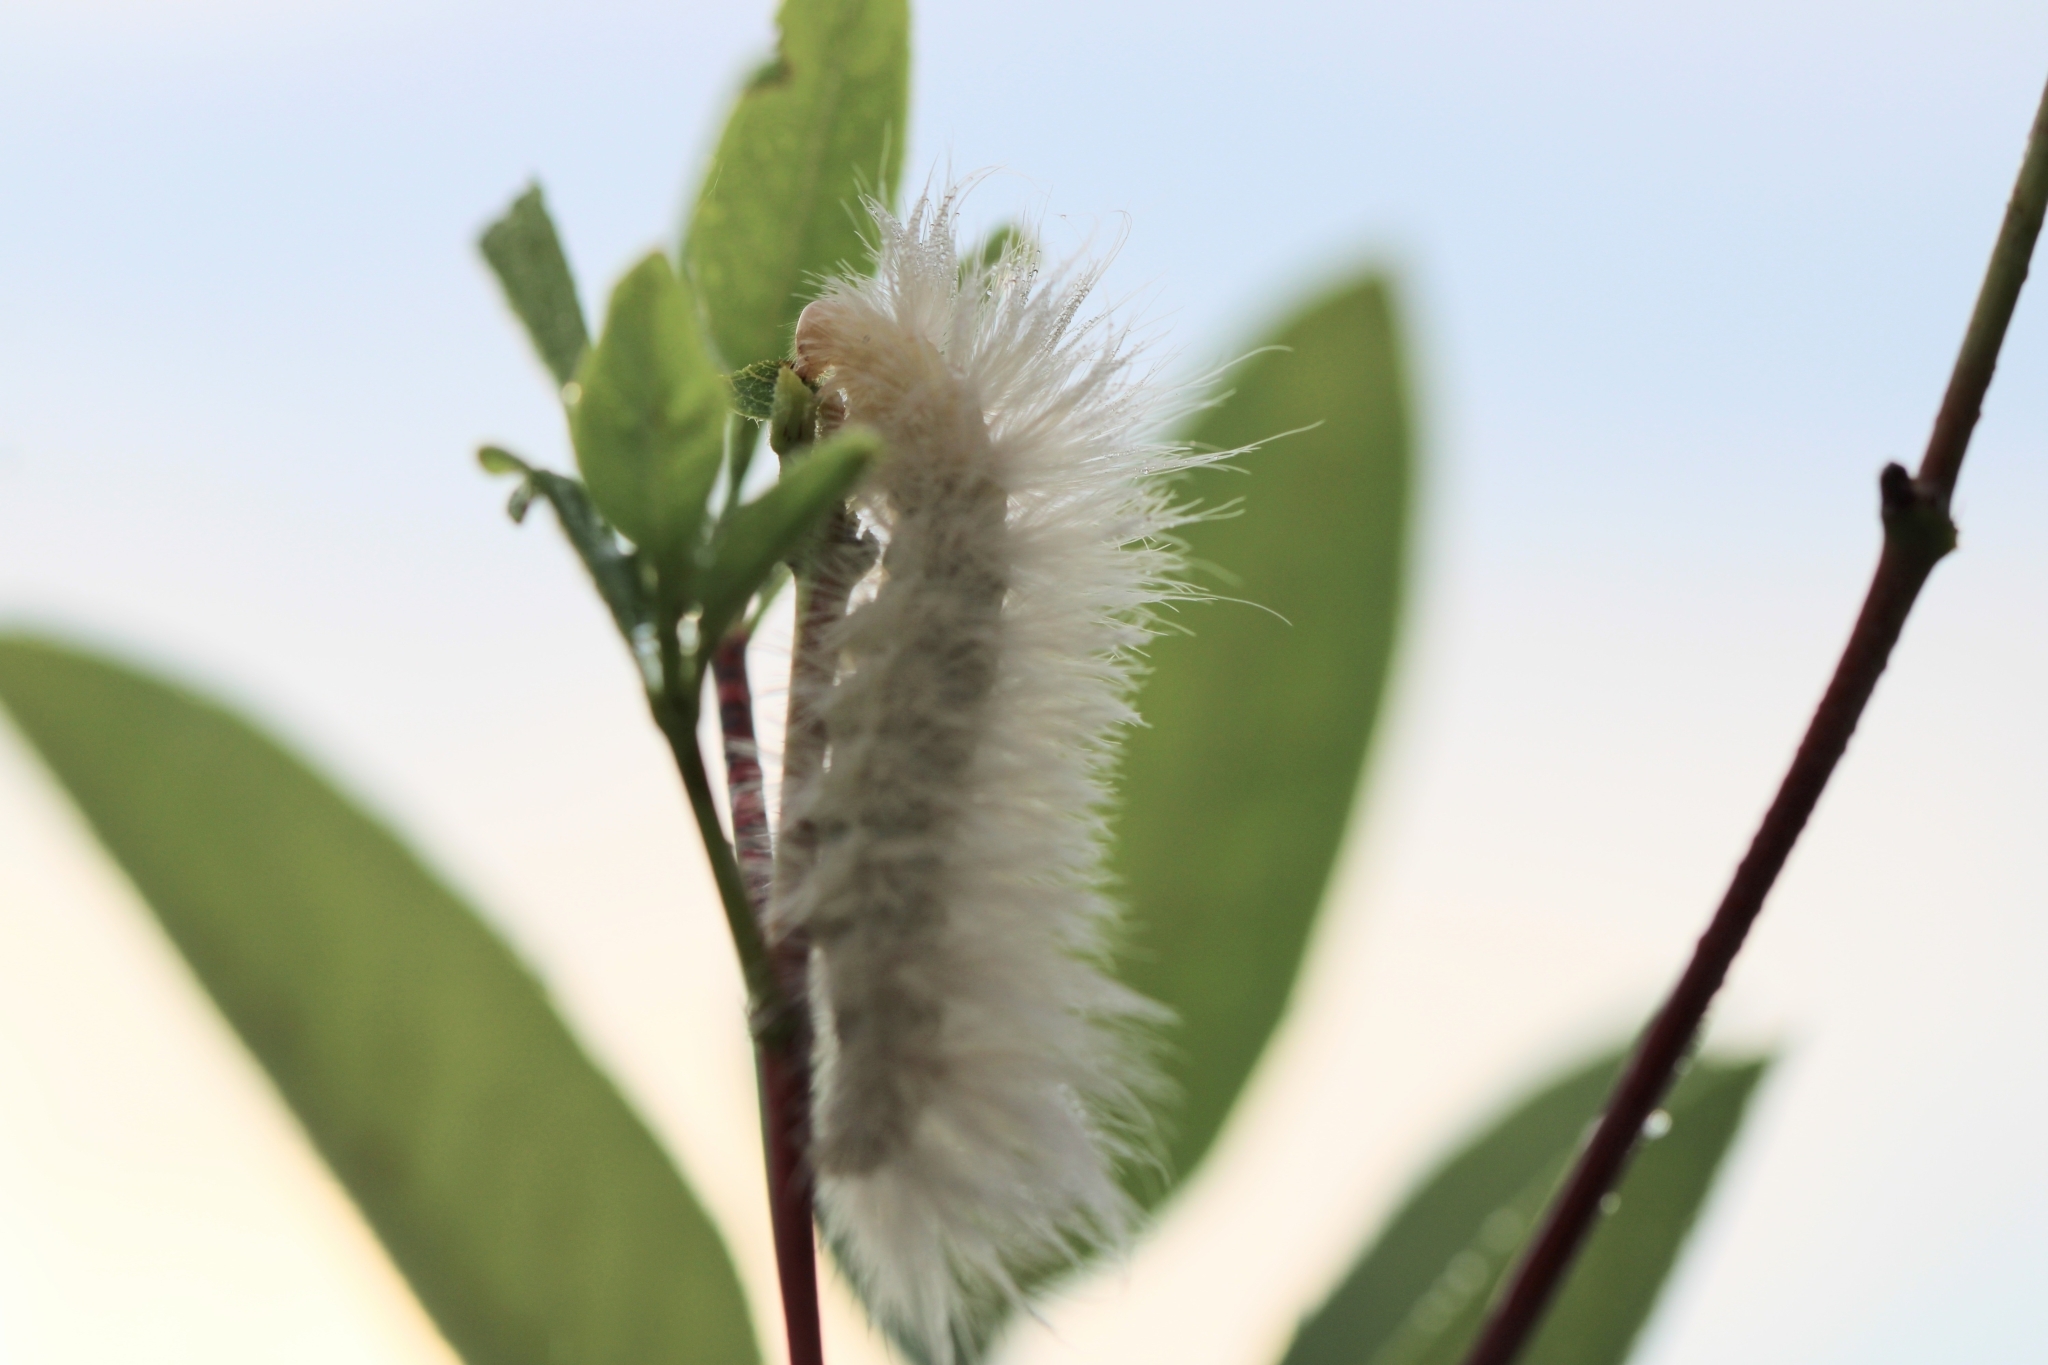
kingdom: Animalia
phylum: Arthropoda
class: Insecta
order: Lepidoptera
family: Erebidae
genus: Cycnia
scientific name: Cycnia tenera
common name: Delicate cycnia moth
